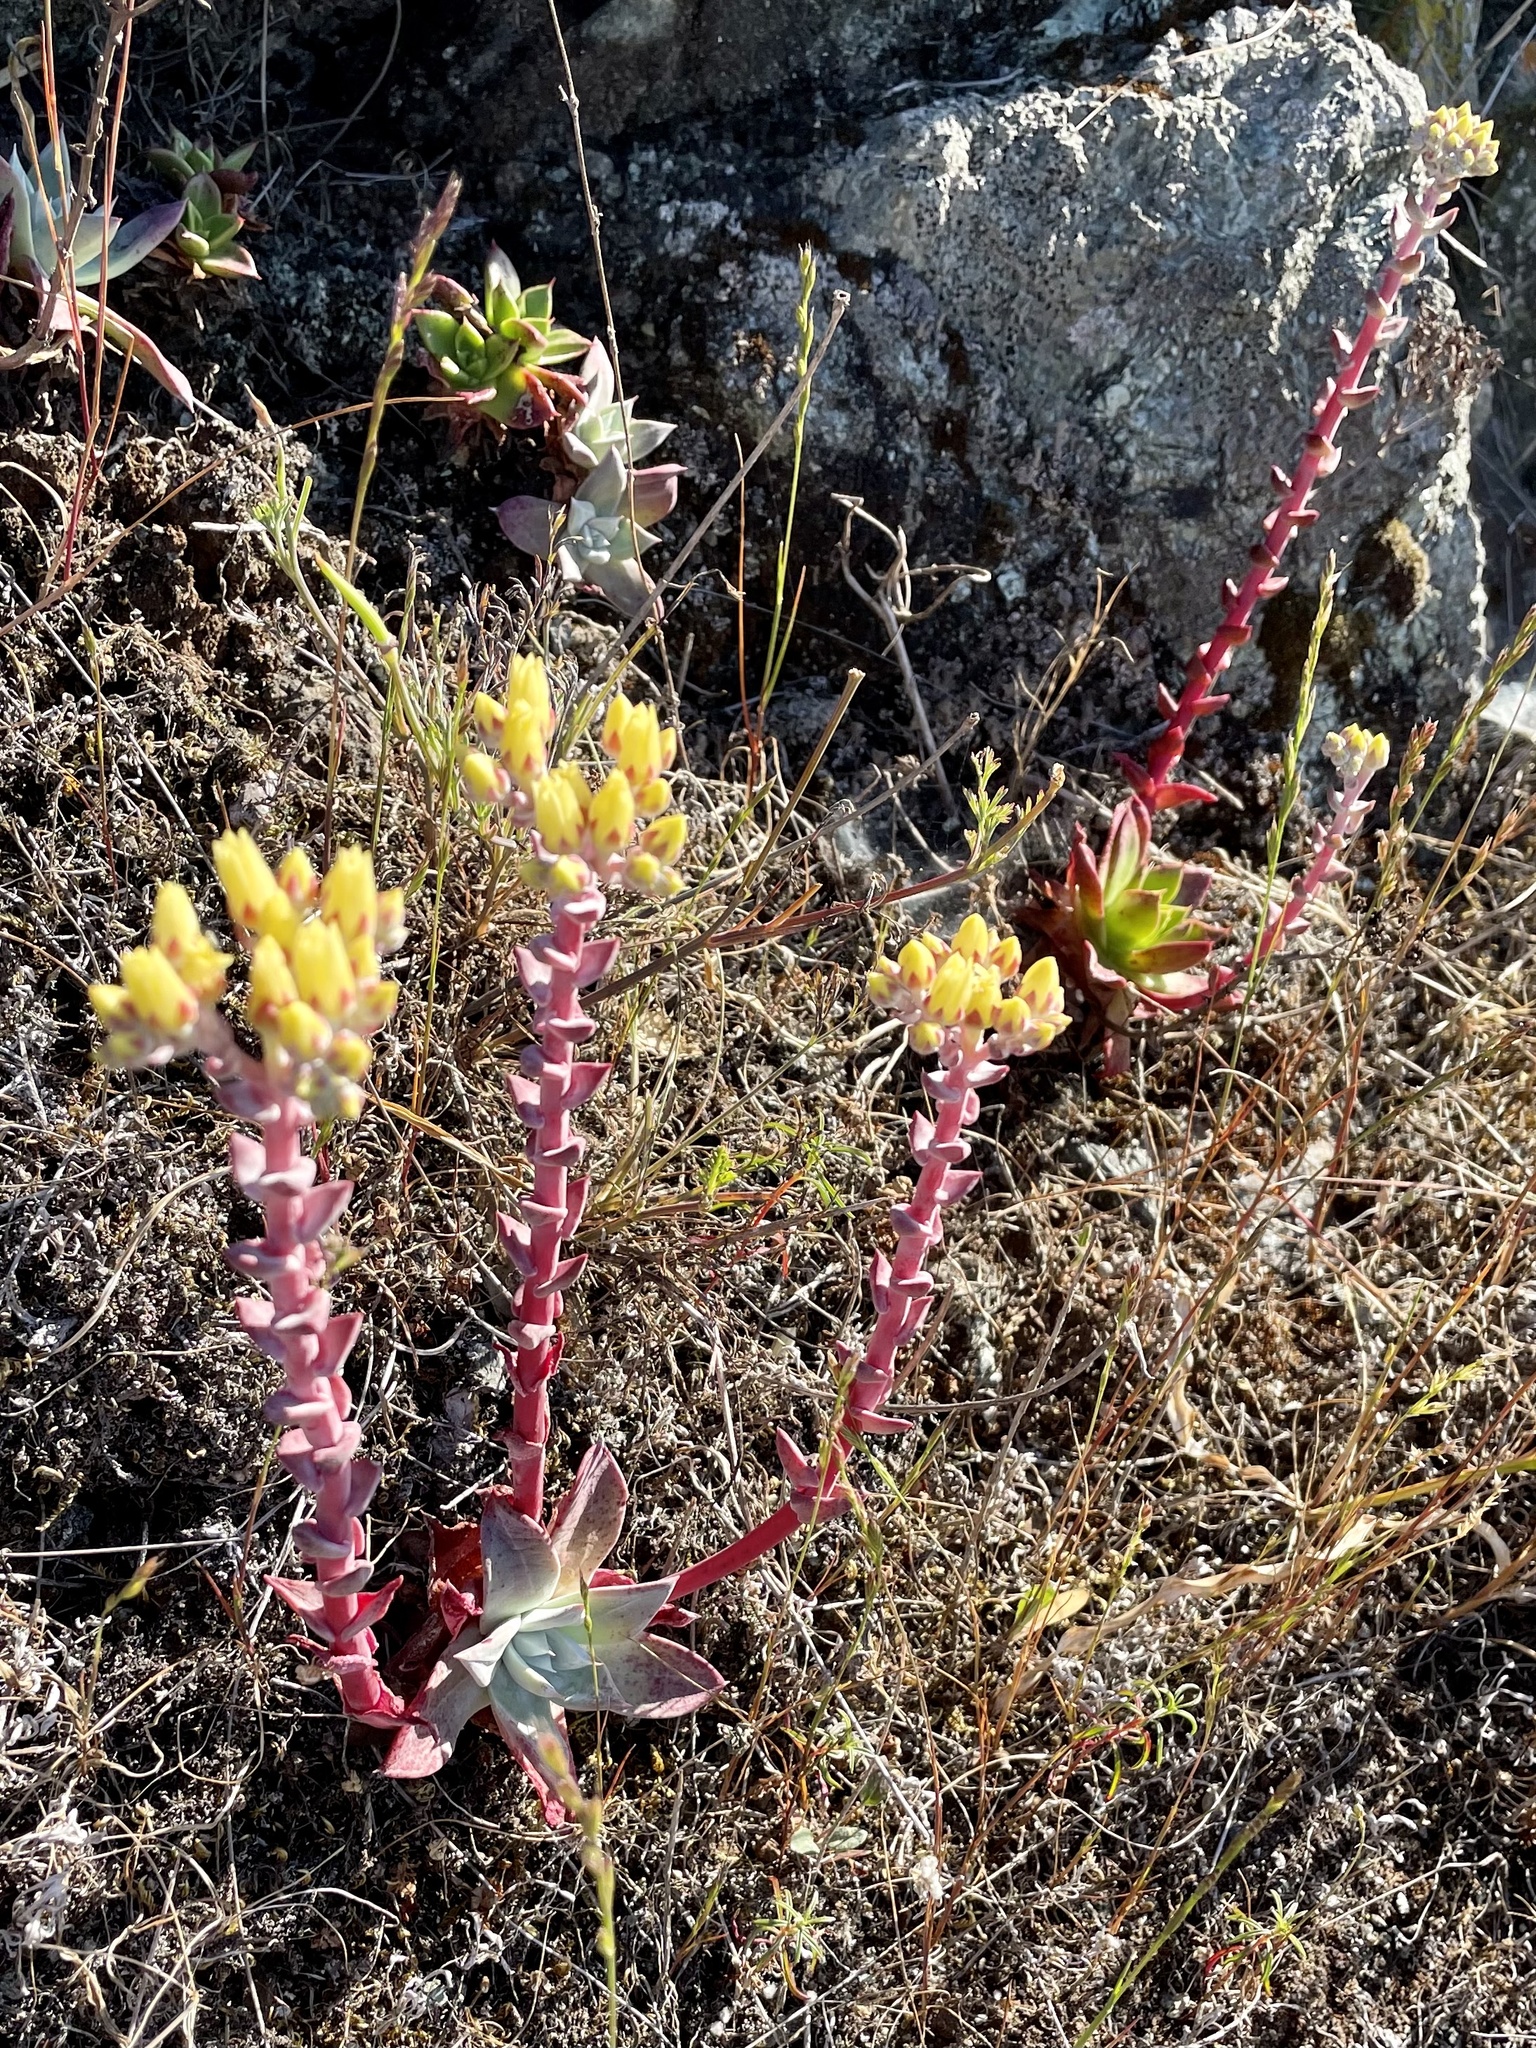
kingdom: Plantae
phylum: Tracheophyta
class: Magnoliopsida
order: Saxifragales
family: Crassulaceae
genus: Dudleya
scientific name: Dudleya farinosa
